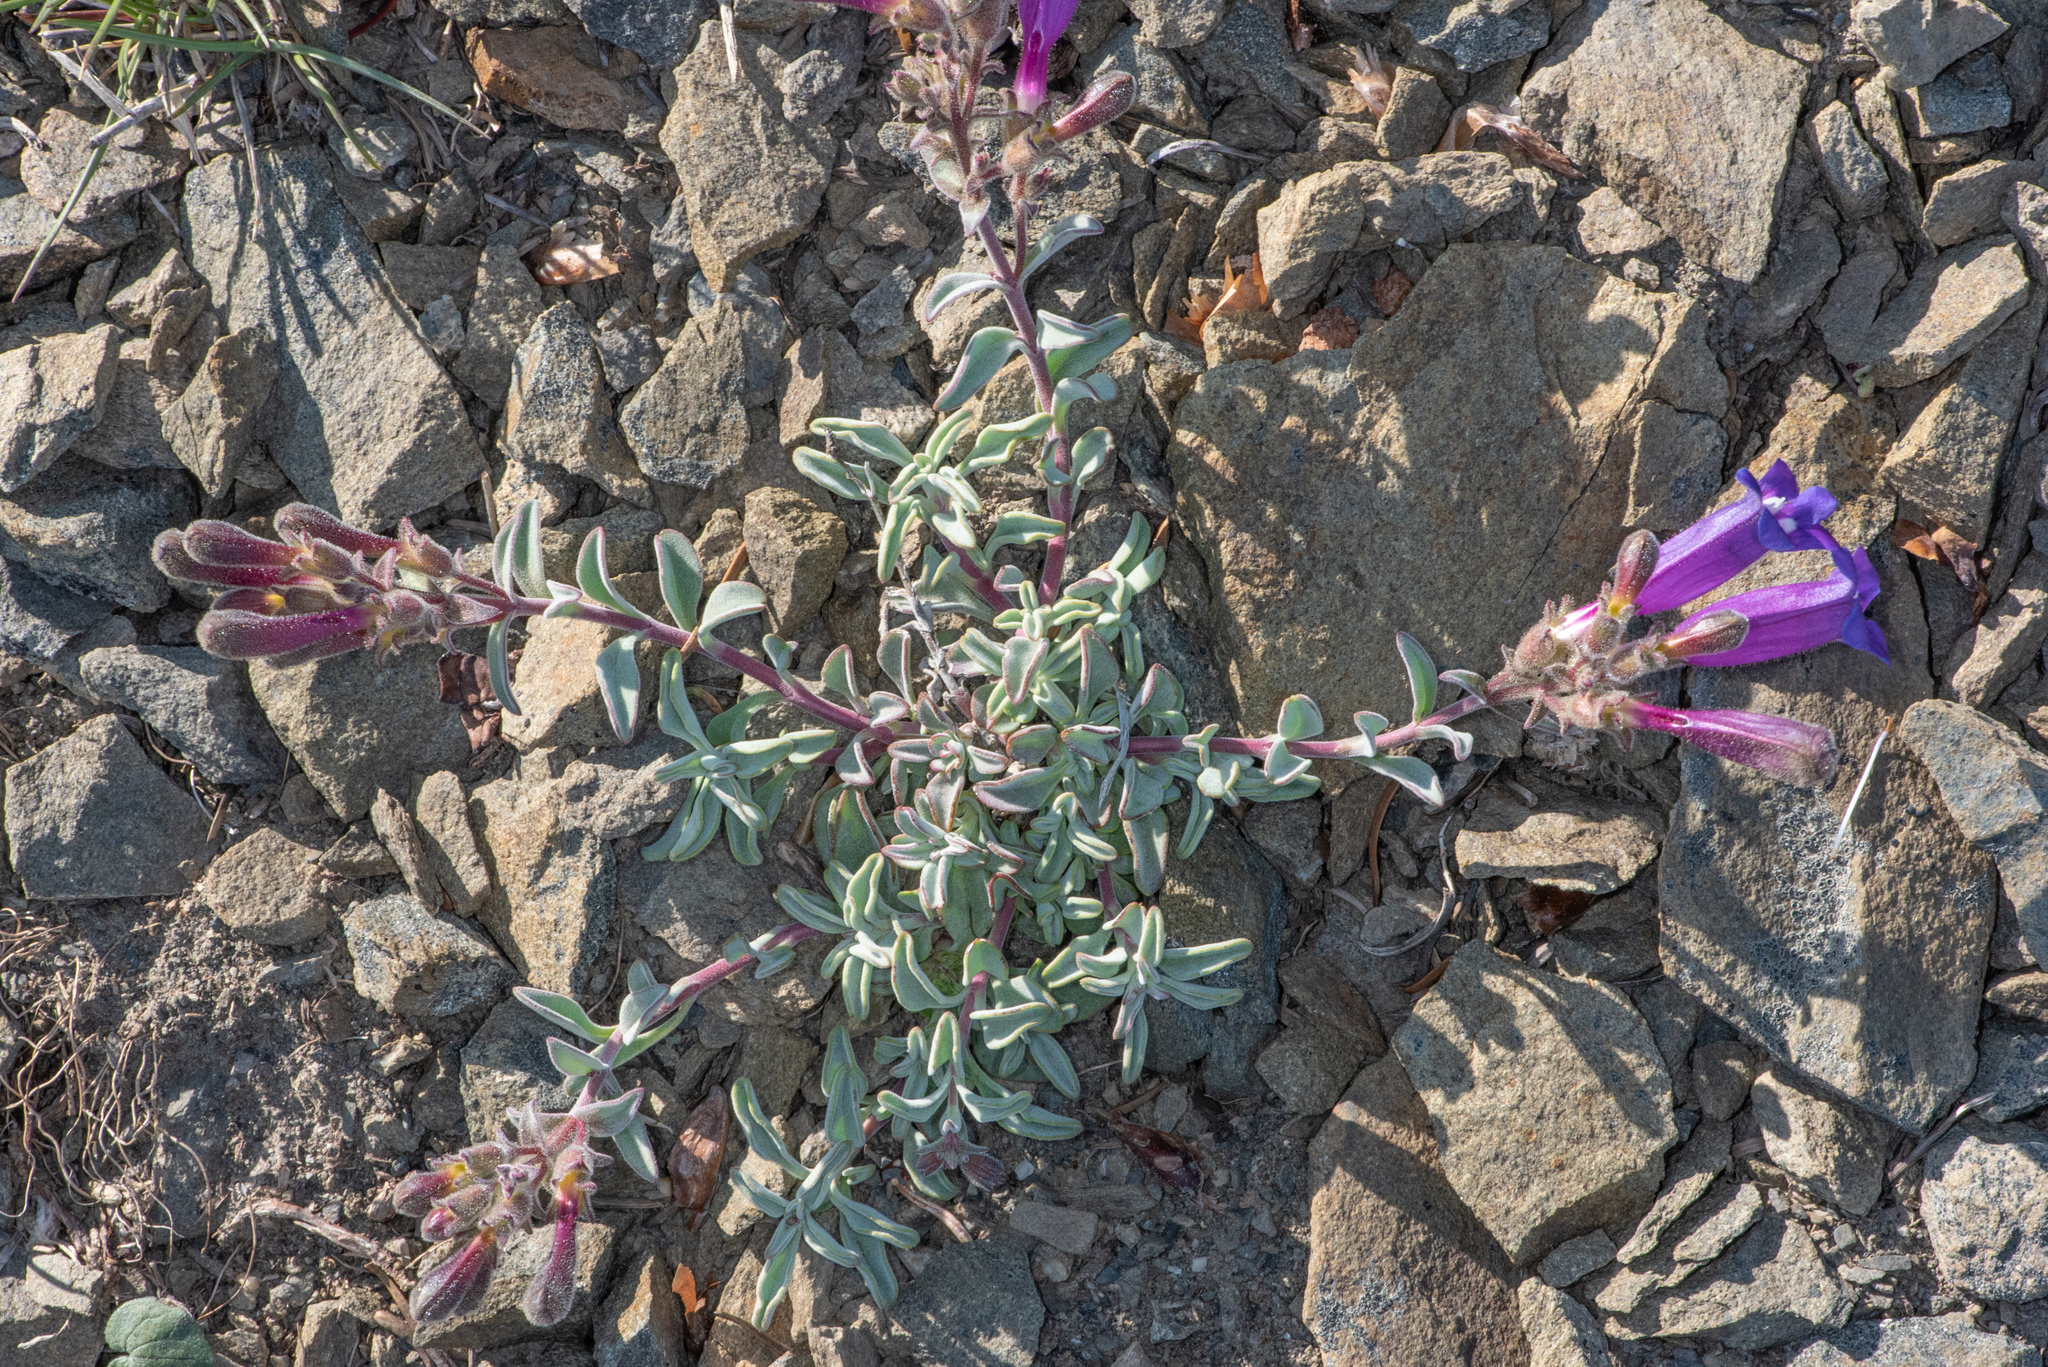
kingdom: Plantae
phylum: Tracheophyta
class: Magnoliopsida
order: Lamiales
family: Plantaginaceae
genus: Penstemon
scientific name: Penstemon purpusii
